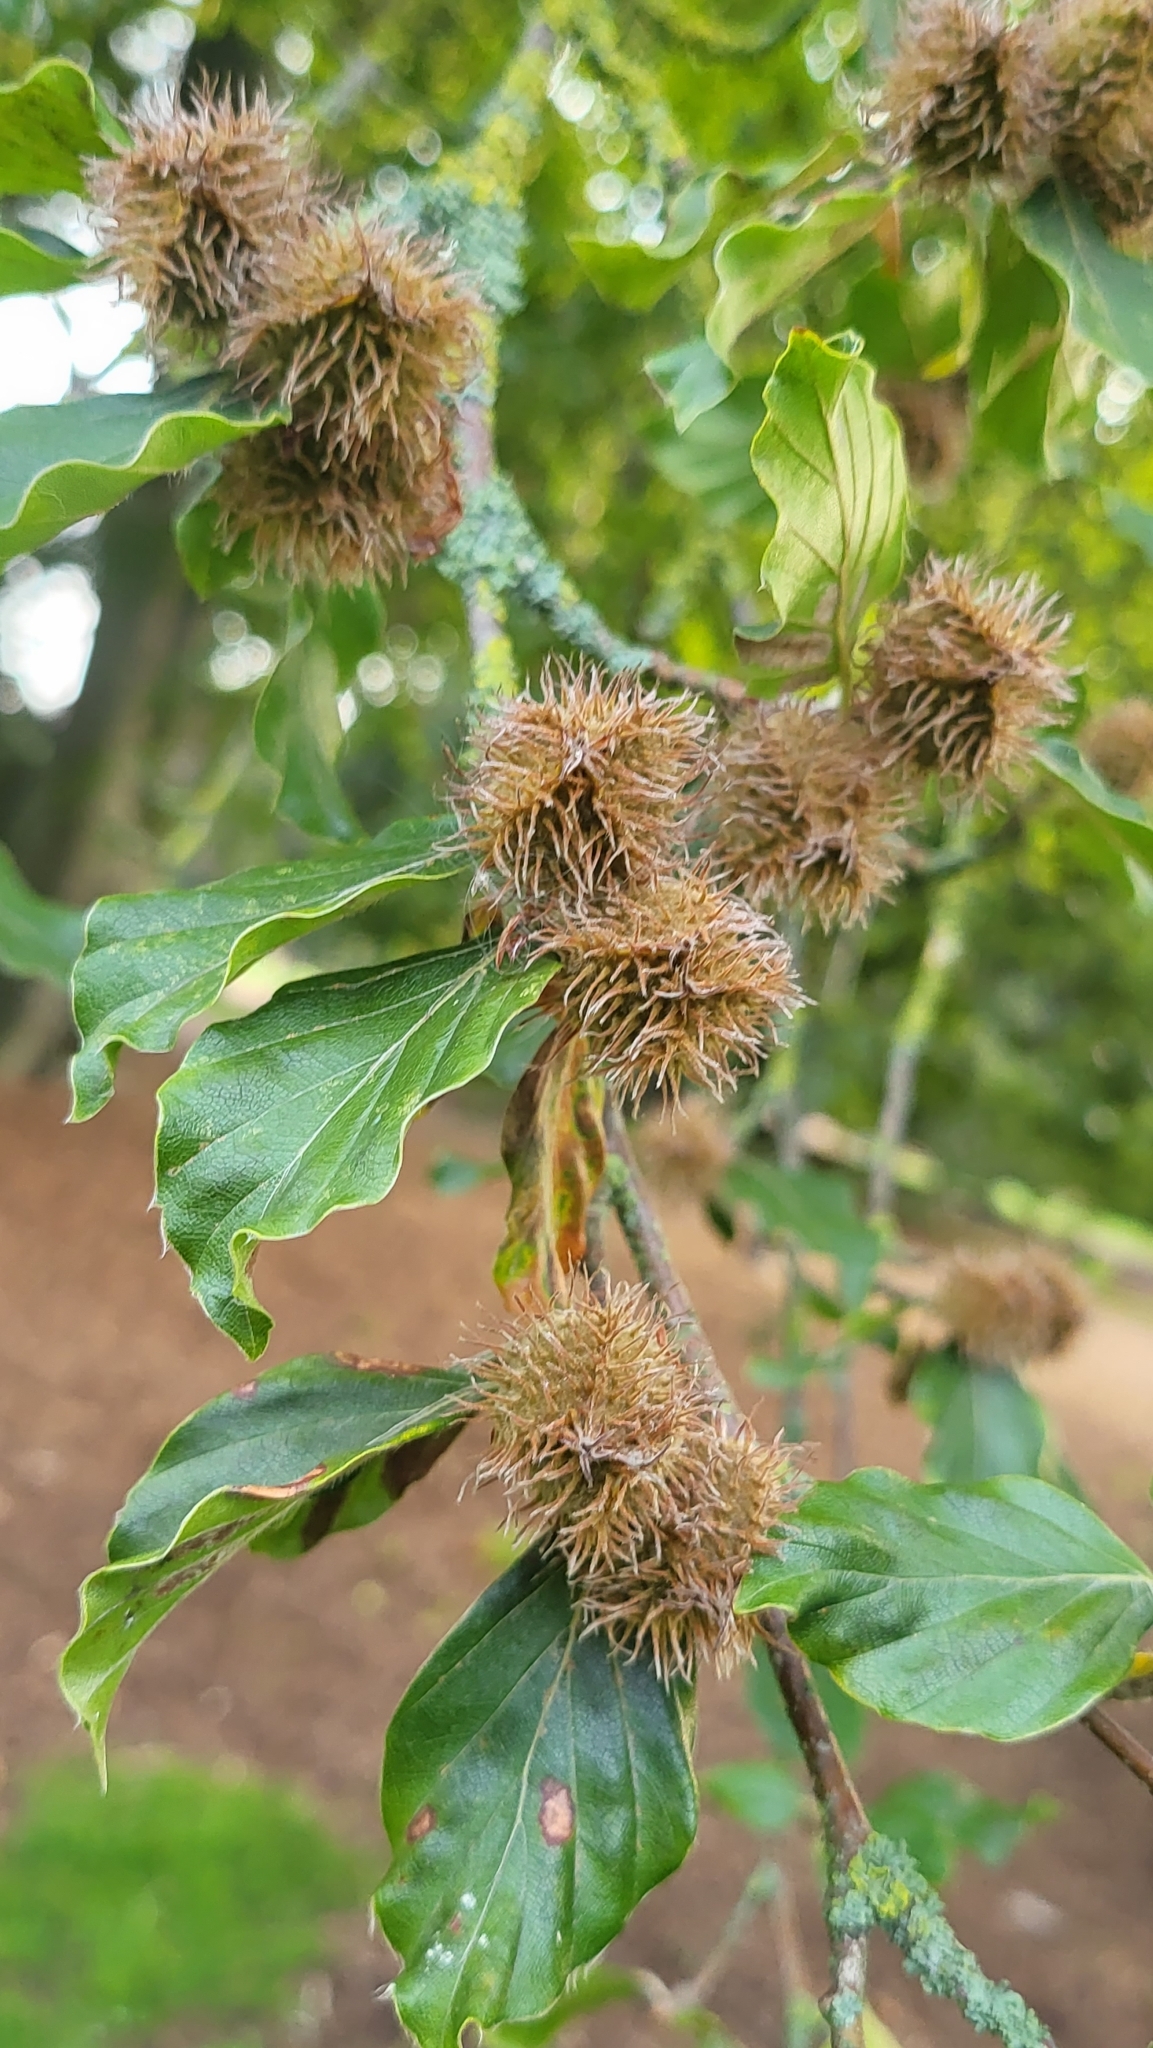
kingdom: Plantae
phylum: Tracheophyta
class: Magnoliopsida
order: Fagales
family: Fagaceae
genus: Fagus
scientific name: Fagus sylvatica
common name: Beech
